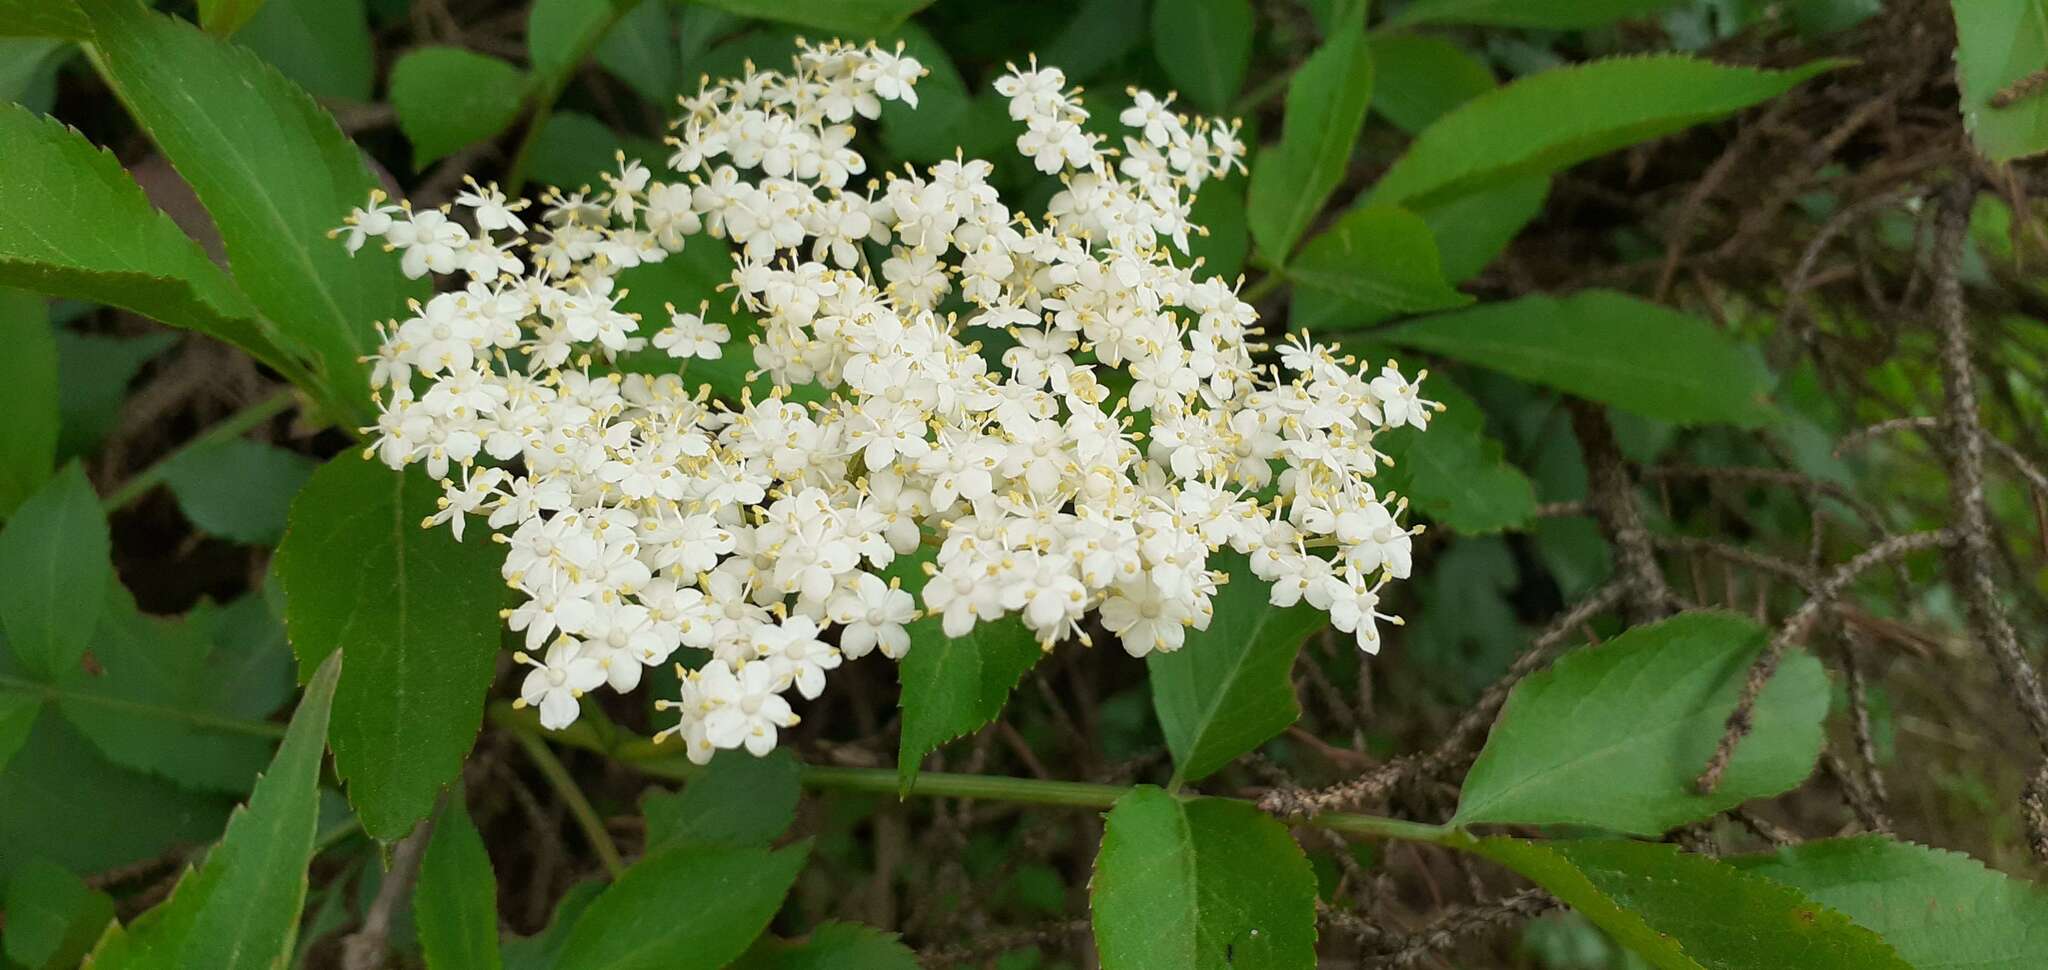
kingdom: Plantae
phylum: Tracheophyta
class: Magnoliopsida
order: Dipsacales
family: Viburnaceae
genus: Sambucus
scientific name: Sambucus nigra
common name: Elder
